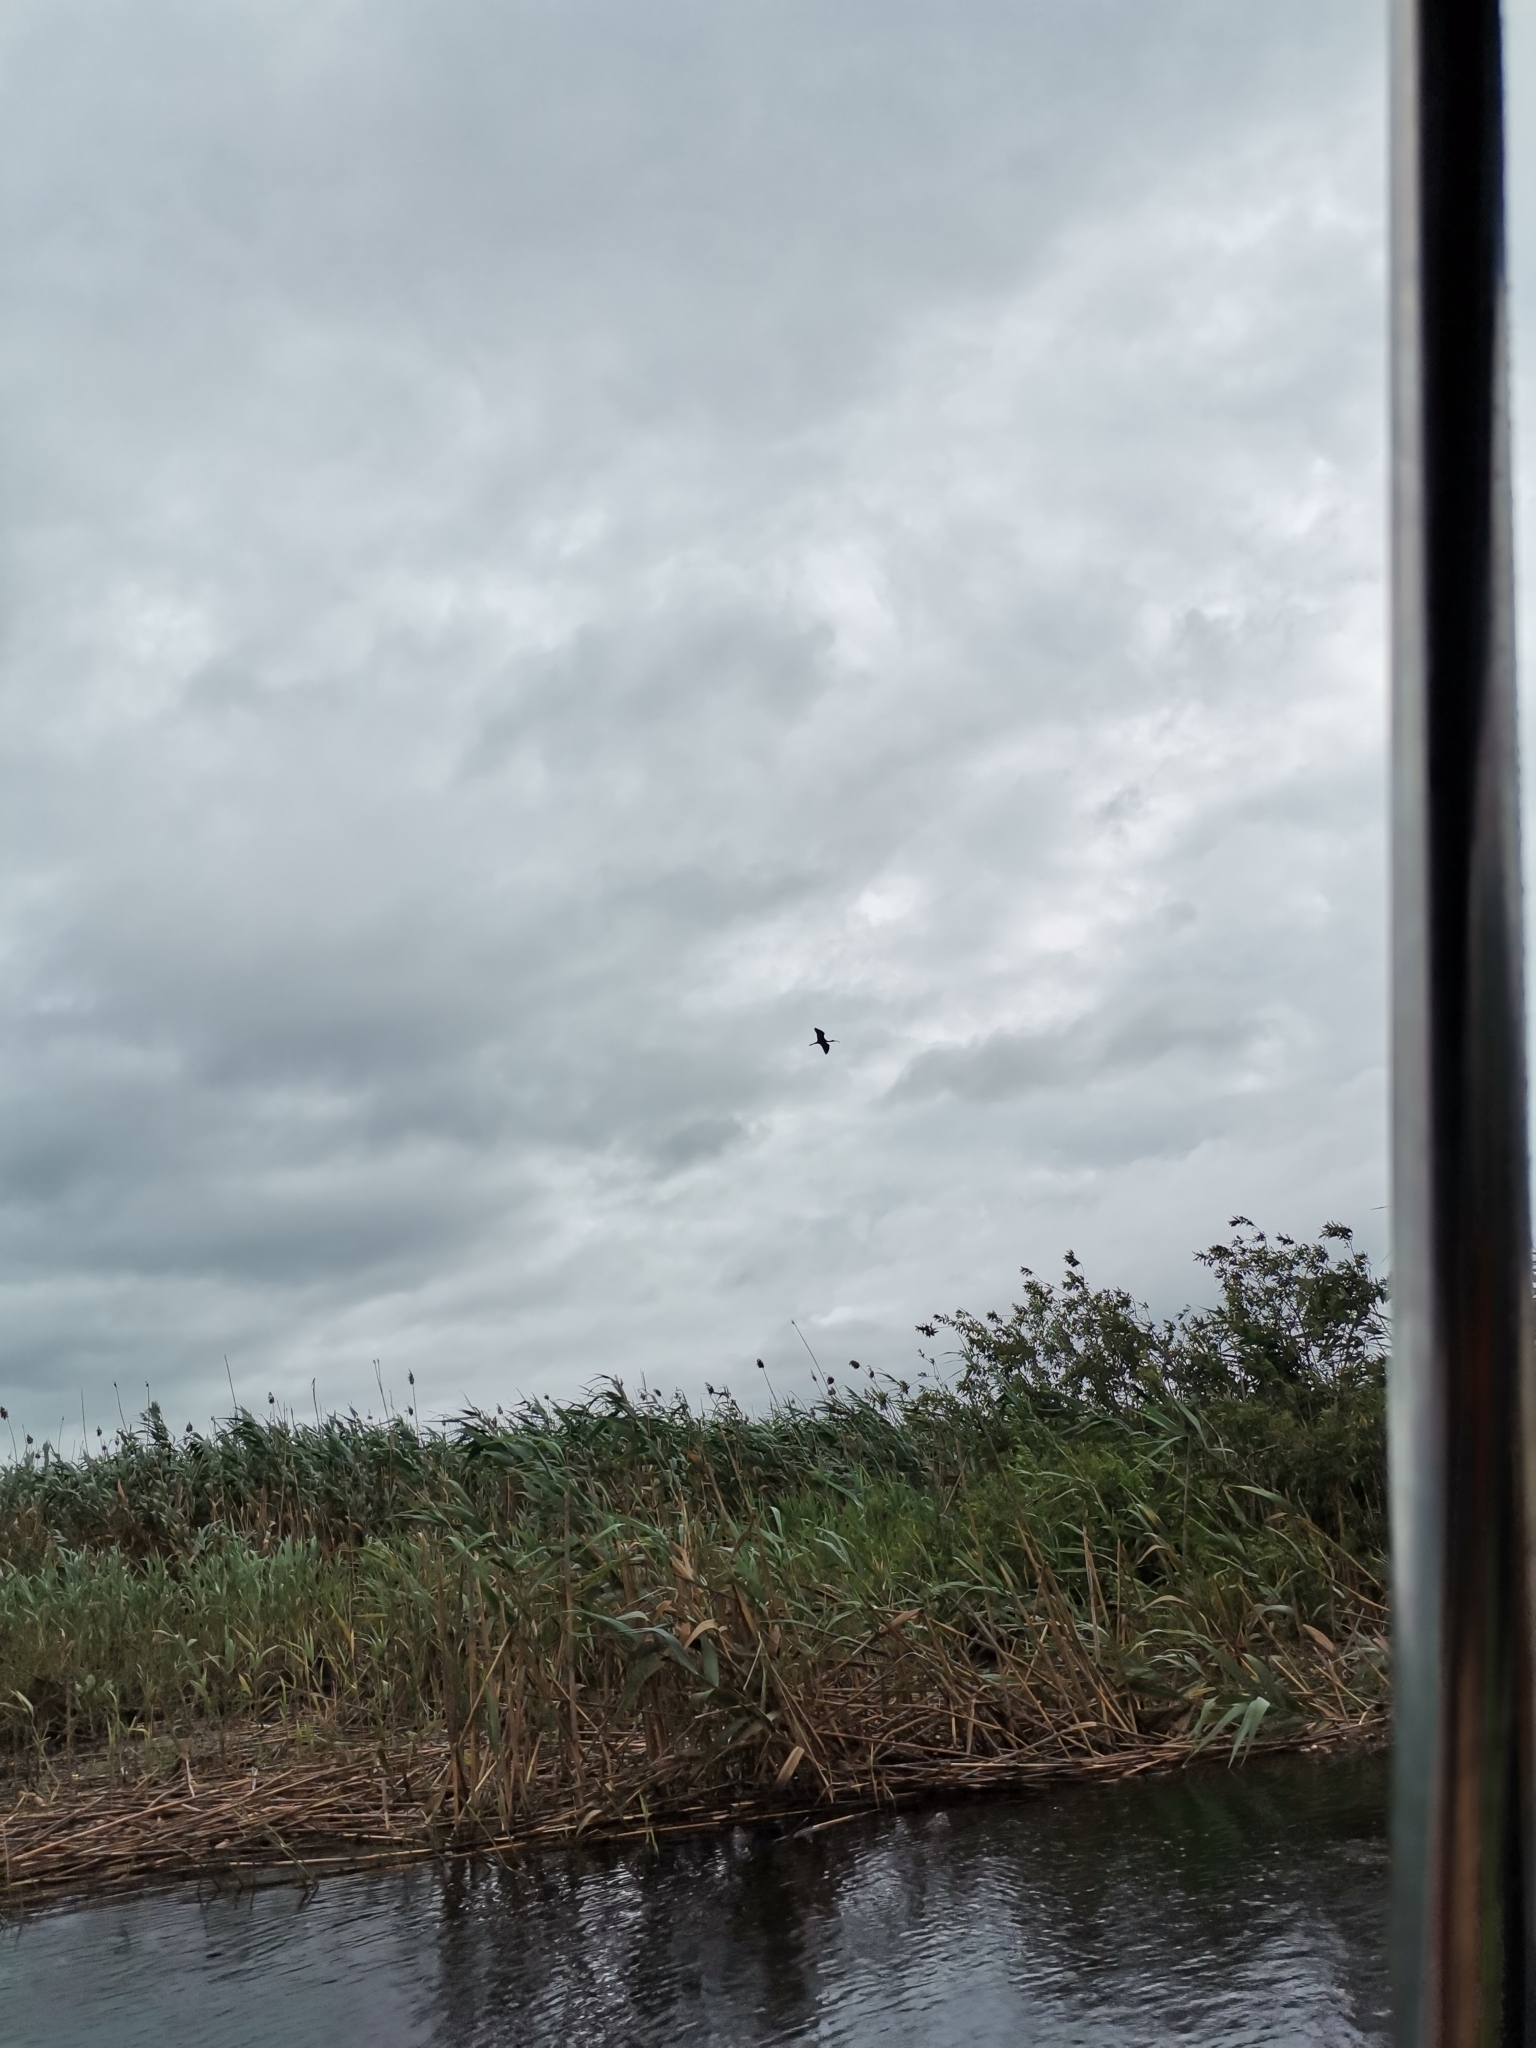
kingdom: Animalia
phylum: Chordata
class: Aves
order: Pelecaniformes
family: Threskiornithidae
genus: Plegadis
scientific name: Plegadis falcinellus
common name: Glossy ibis
